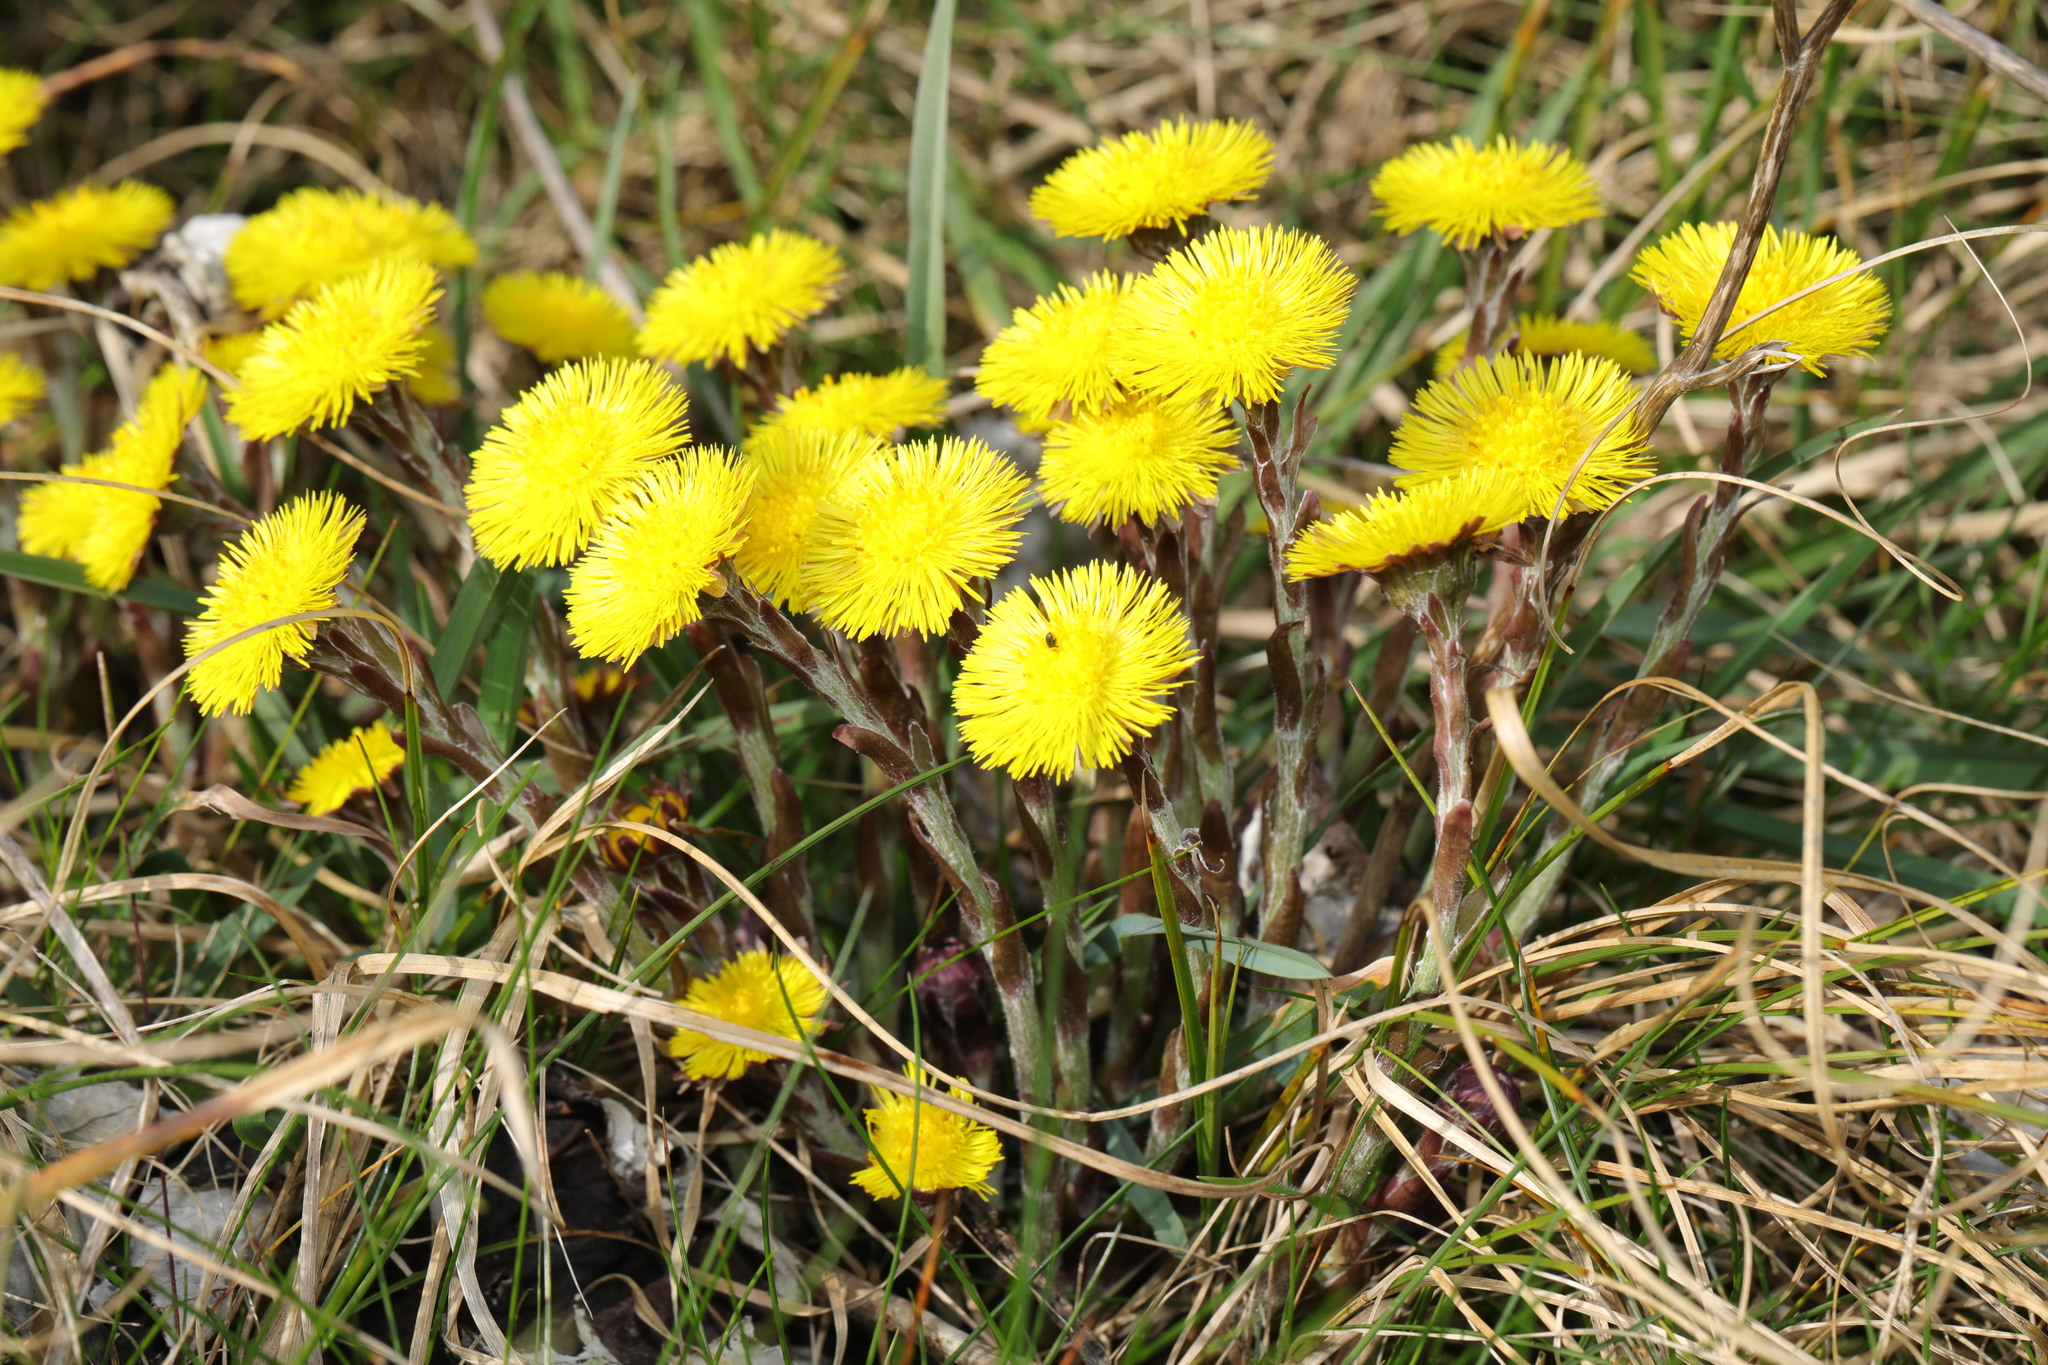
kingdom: Plantae
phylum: Tracheophyta
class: Magnoliopsida
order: Asterales
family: Asteraceae
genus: Tussilago
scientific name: Tussilago farfara
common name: Coltsfoot
